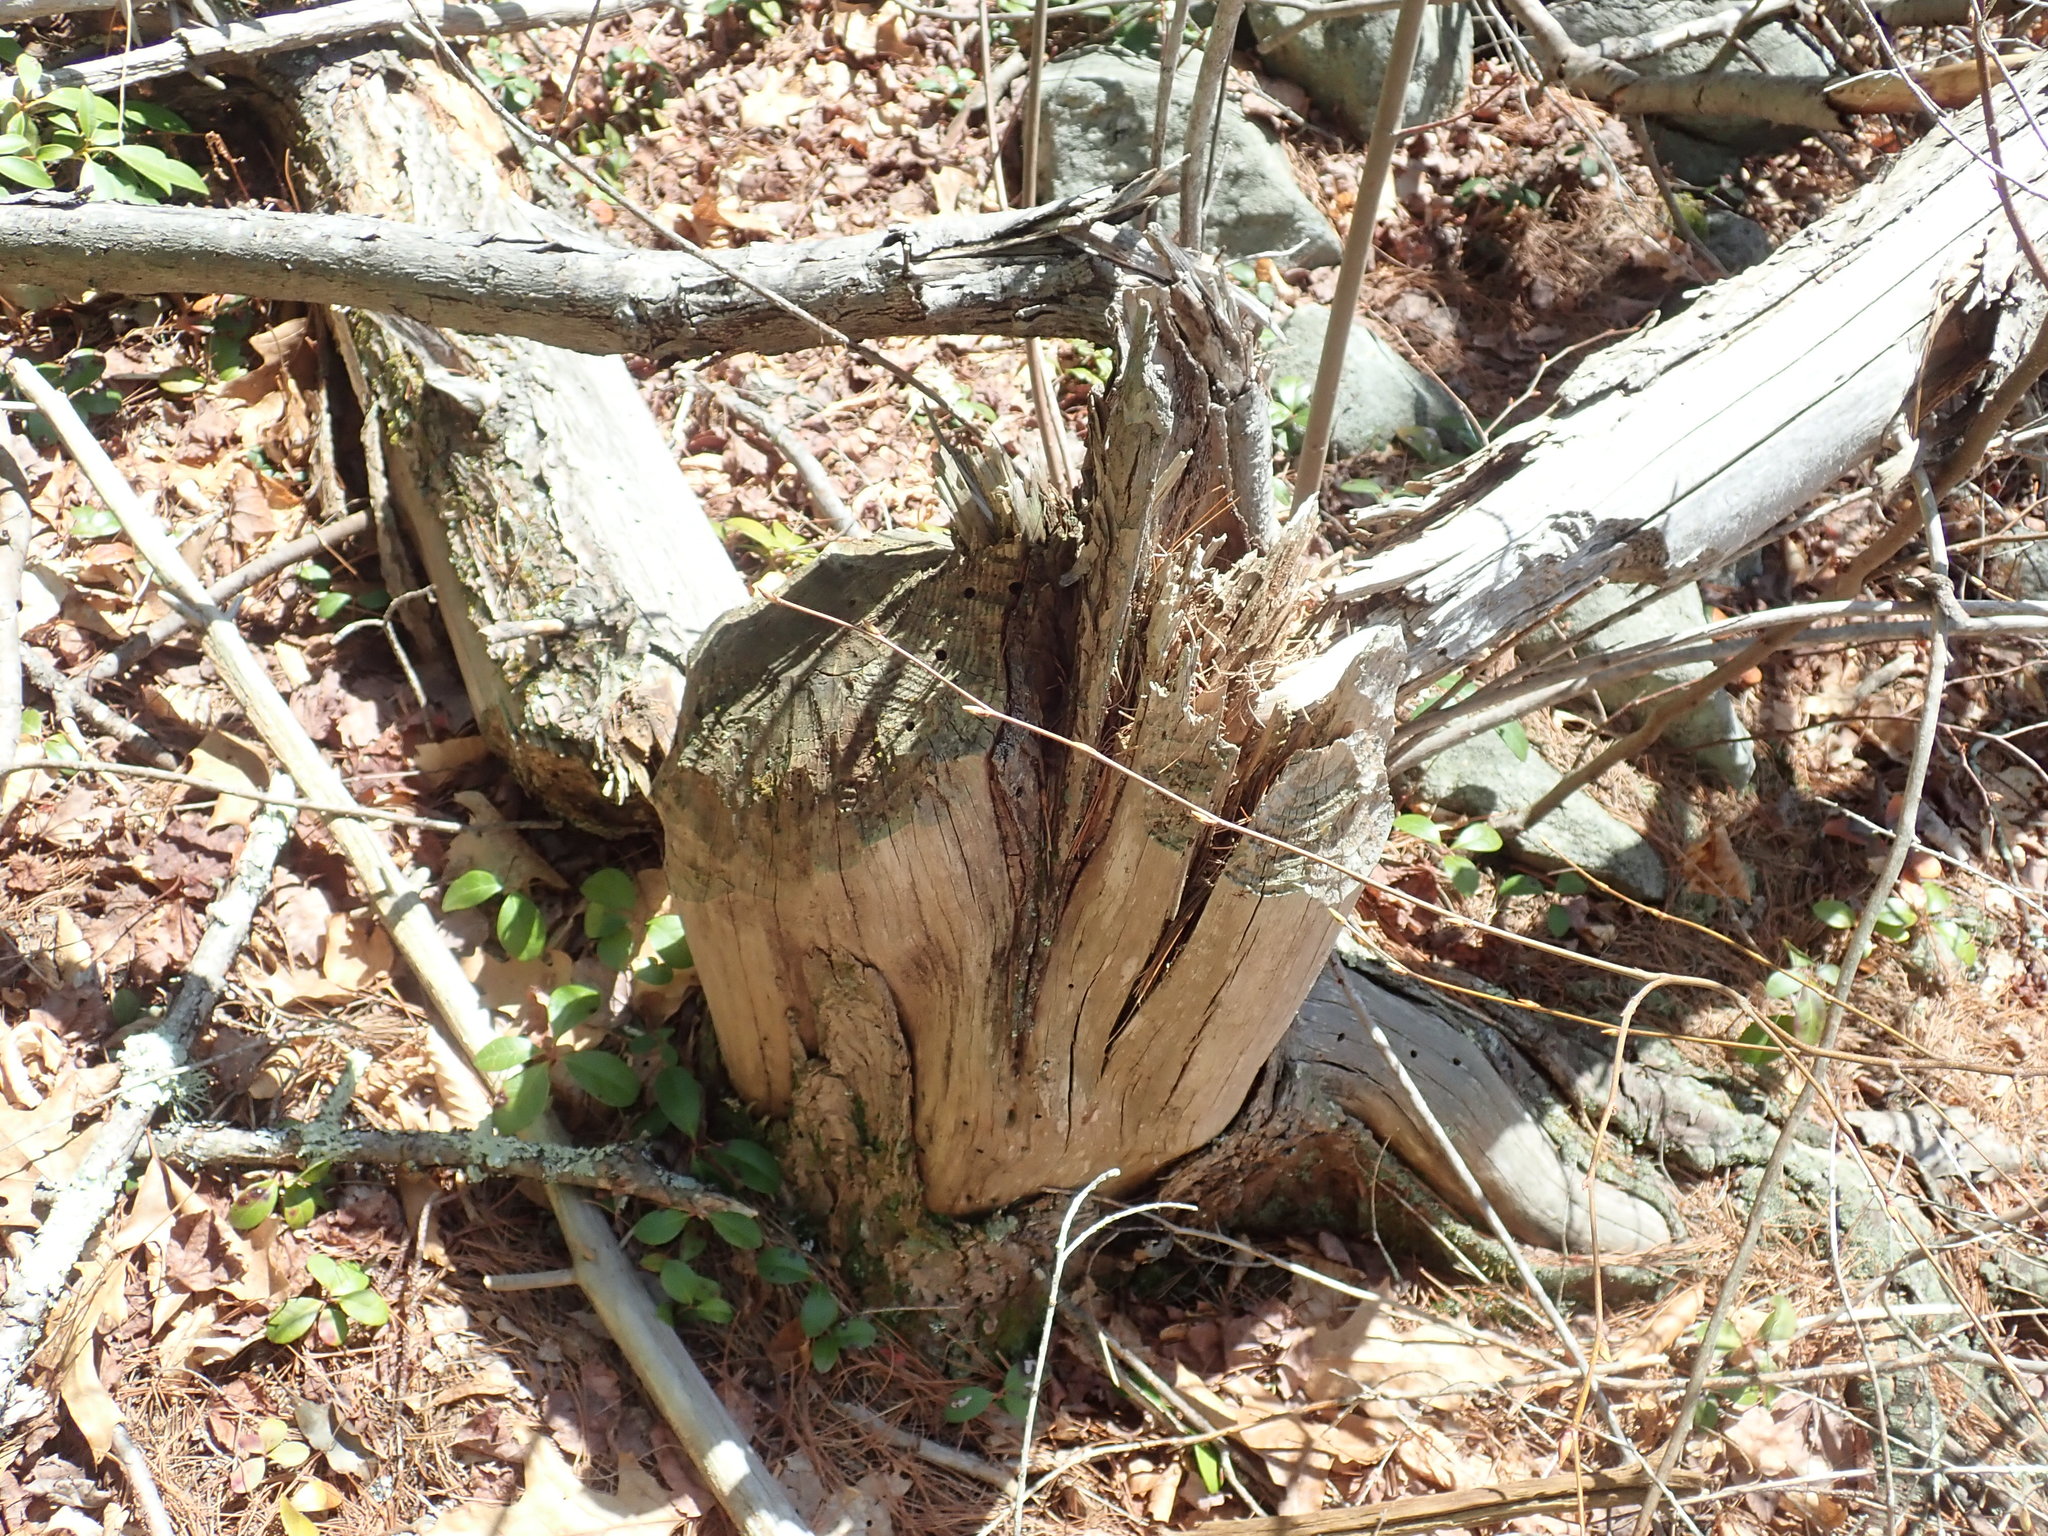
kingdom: Animalia
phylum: Chordata
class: Mammalia
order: Rodentia
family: Castoridae
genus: Castor
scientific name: Castor canadensis
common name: American beaver
